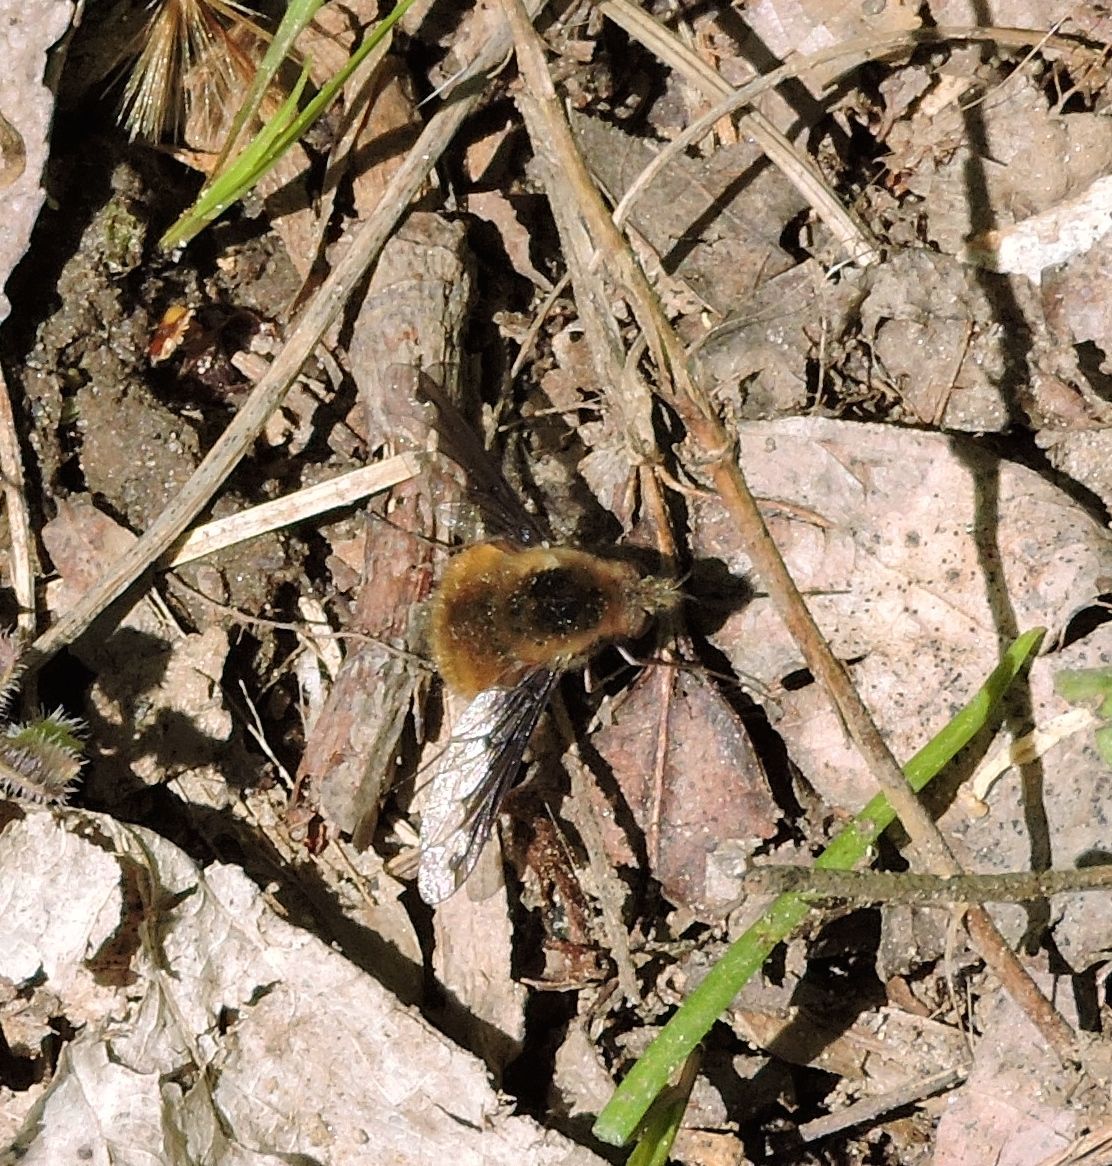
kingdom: Animalia
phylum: Arthropoda
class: Insecta
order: Diptera
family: Bombyliidae
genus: Bombylius
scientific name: Bombylius major
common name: Bee fly
